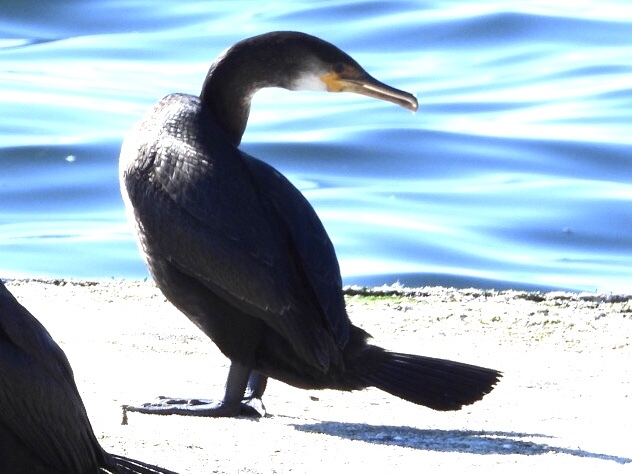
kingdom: Animalia
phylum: Chordata
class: Aves
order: Suliformes
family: Phalacrocoracidae
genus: Phalacrocorax
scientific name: Phalacrocorax capillatus
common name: Japanese cormorant
